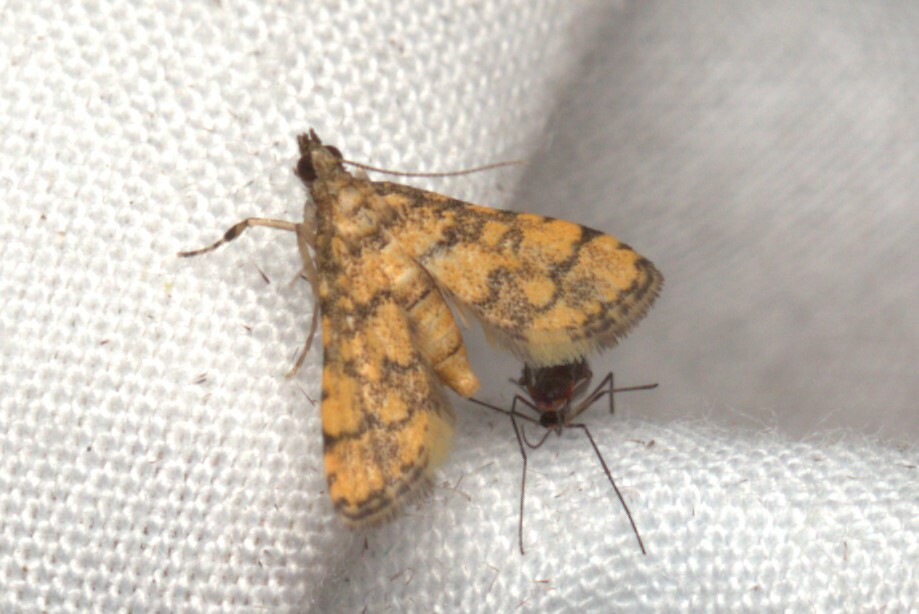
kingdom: Animalia
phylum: Arthropoda
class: Insecta
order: Lepidoptera
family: Crambidae
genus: Metasia
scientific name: Metasia tiasalis
